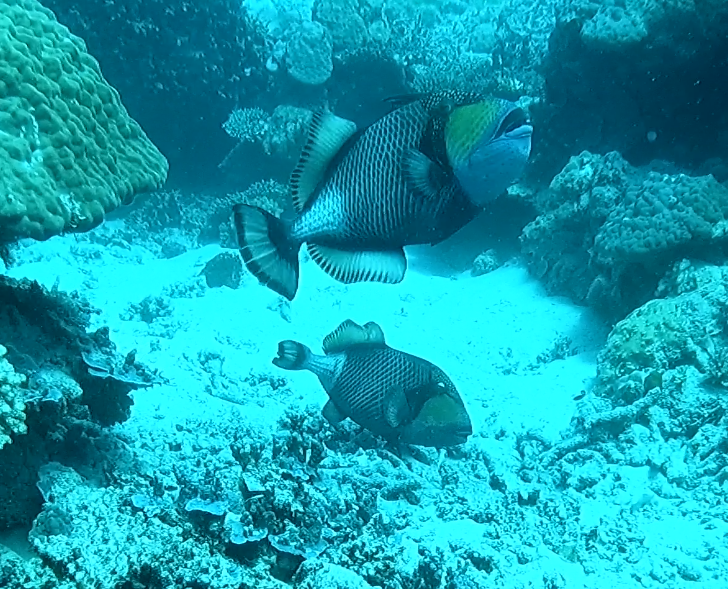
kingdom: Animalia
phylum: Chordata
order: Tetraodontiformes
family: Balistidae
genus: Balistoides
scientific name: Balistoides viridescens
